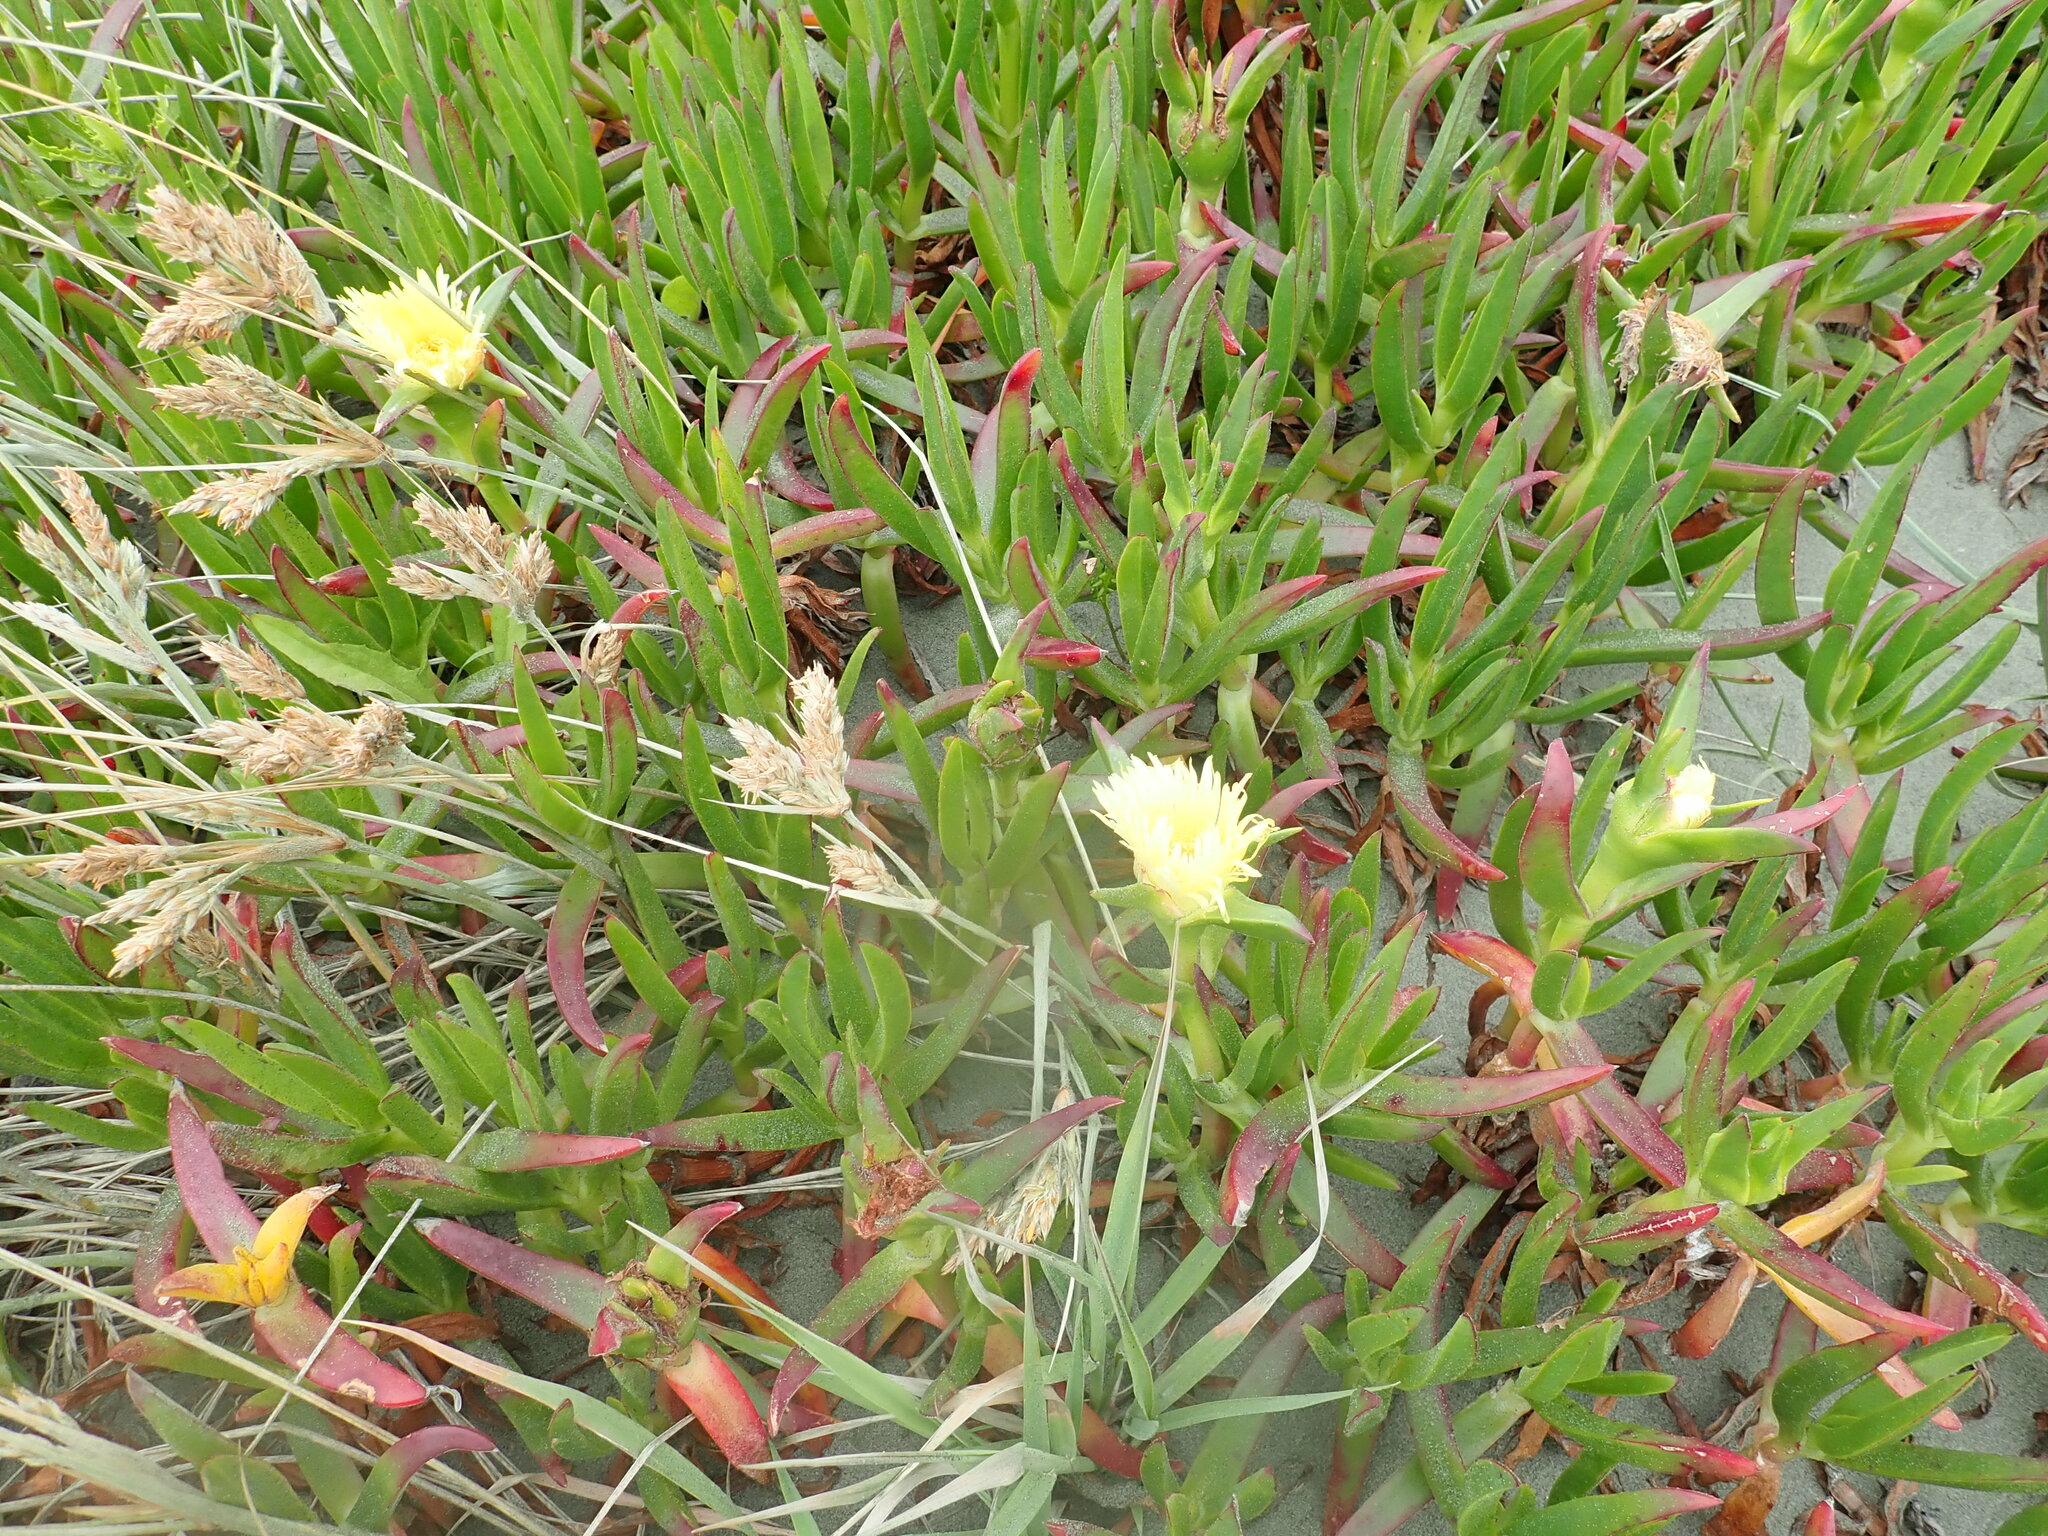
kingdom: Plantae
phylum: Tracheophyta
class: Magnoliopsida
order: Caryophyllales
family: Aizoaceae
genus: Carpobrotus
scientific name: Carpobrotus edulis
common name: Hottentot-fig
